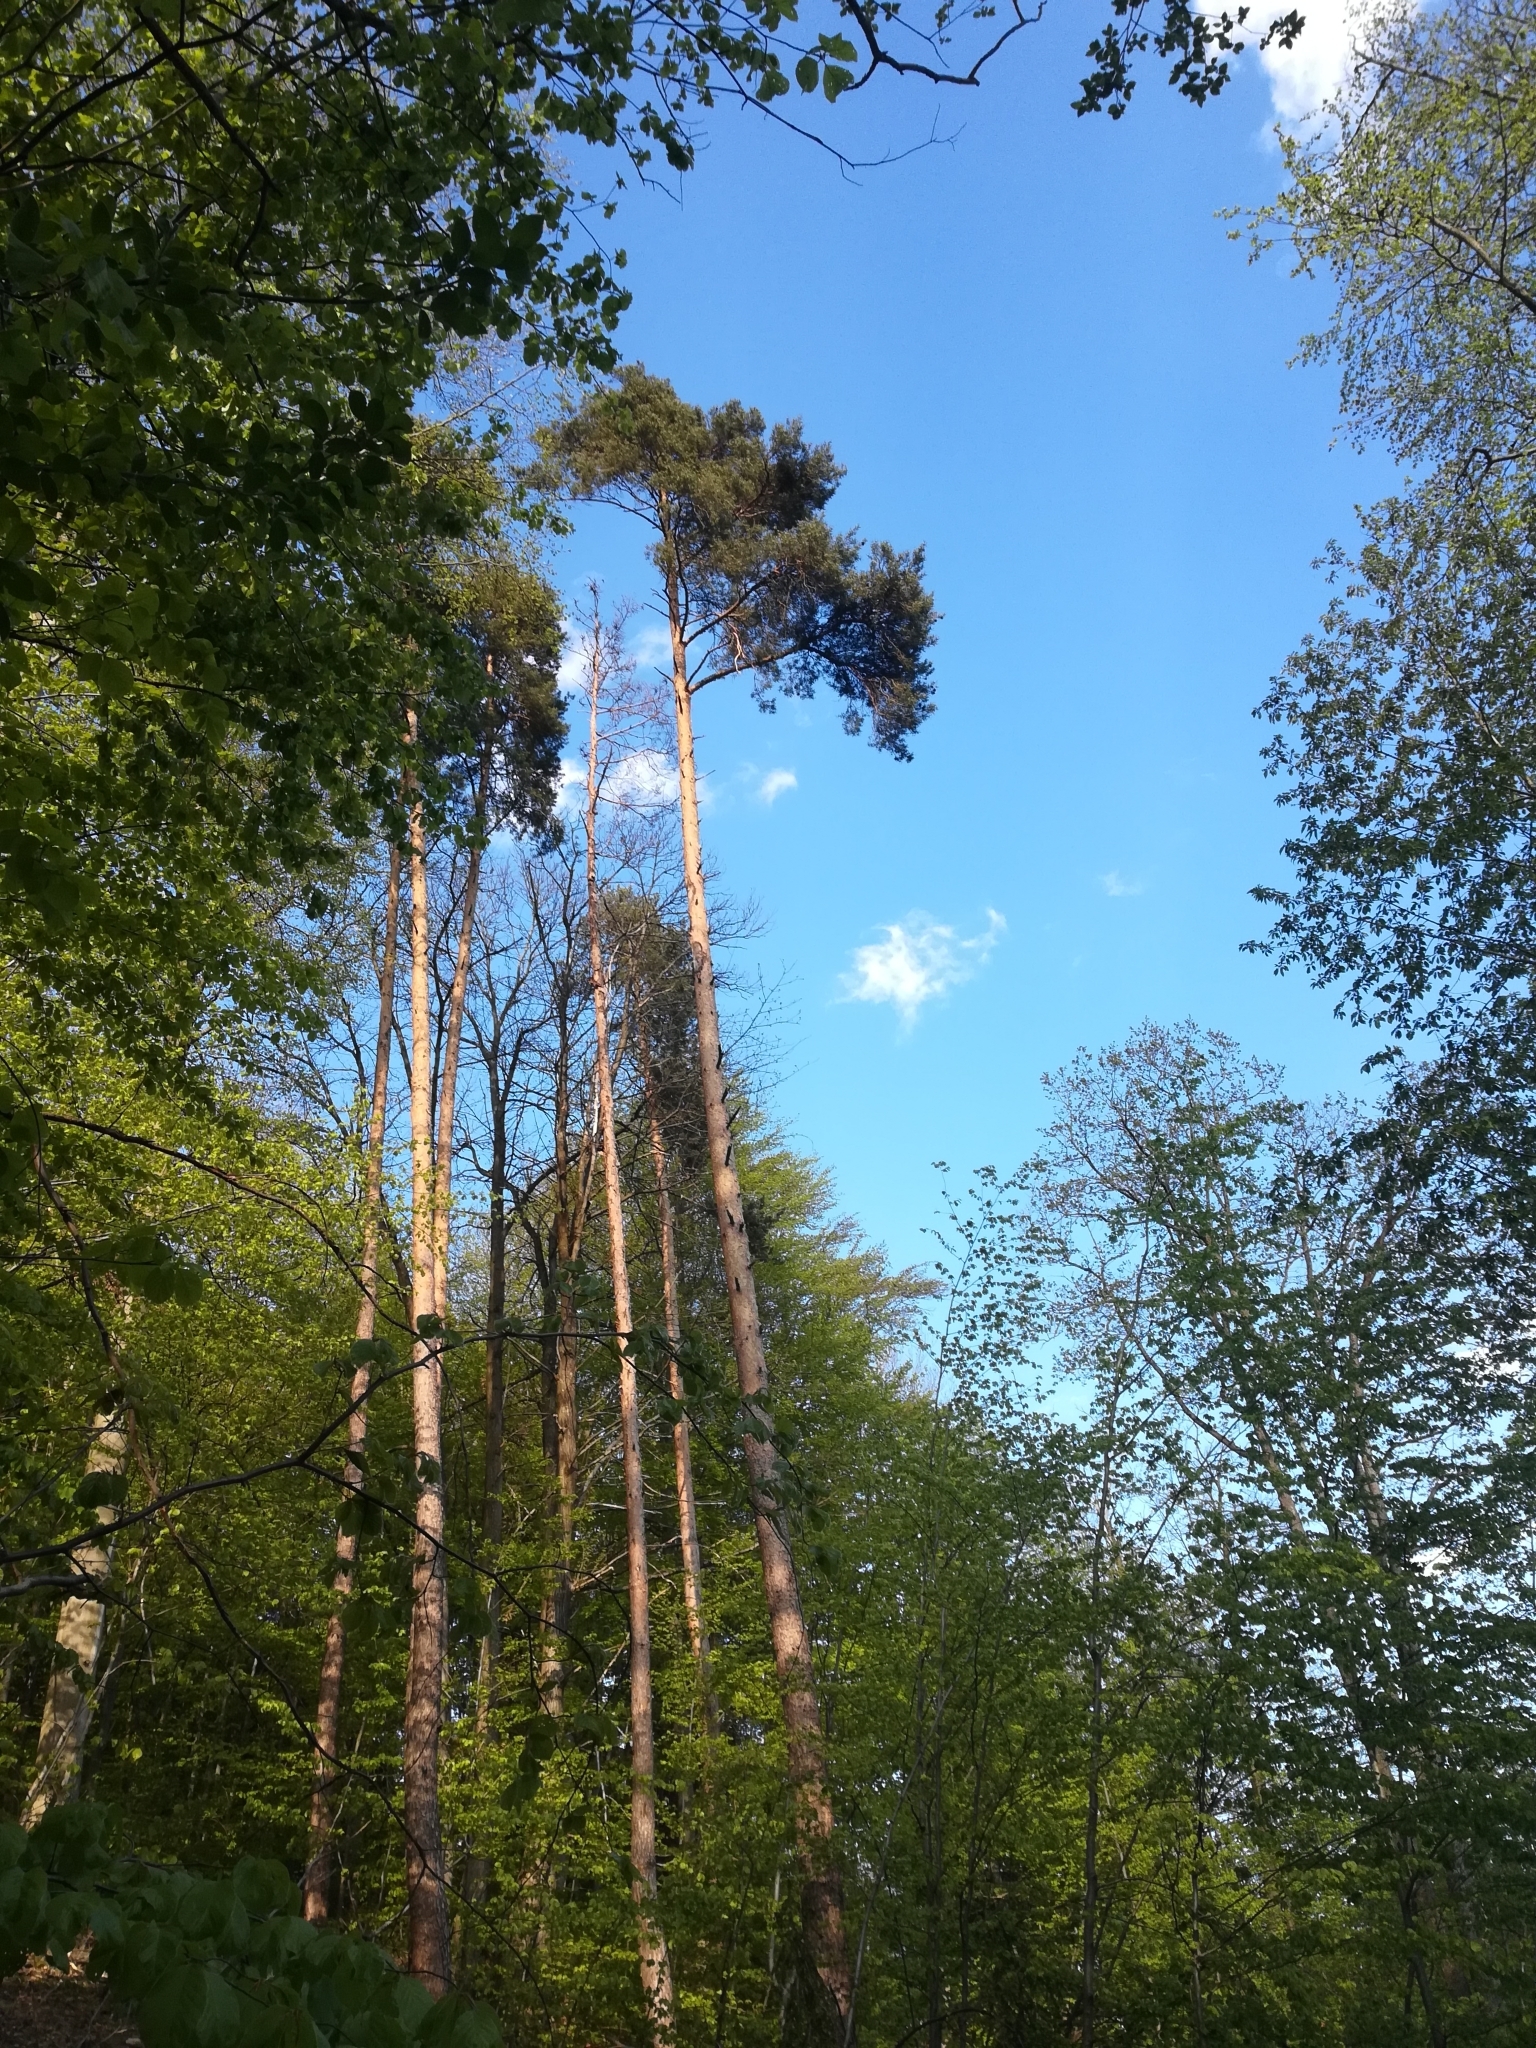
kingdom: Plantae
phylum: Tracheophyta
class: Pinopsida
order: Pinales
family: Pinaceae
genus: Pinus
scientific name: Pinus sylvestris
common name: Scots pine
